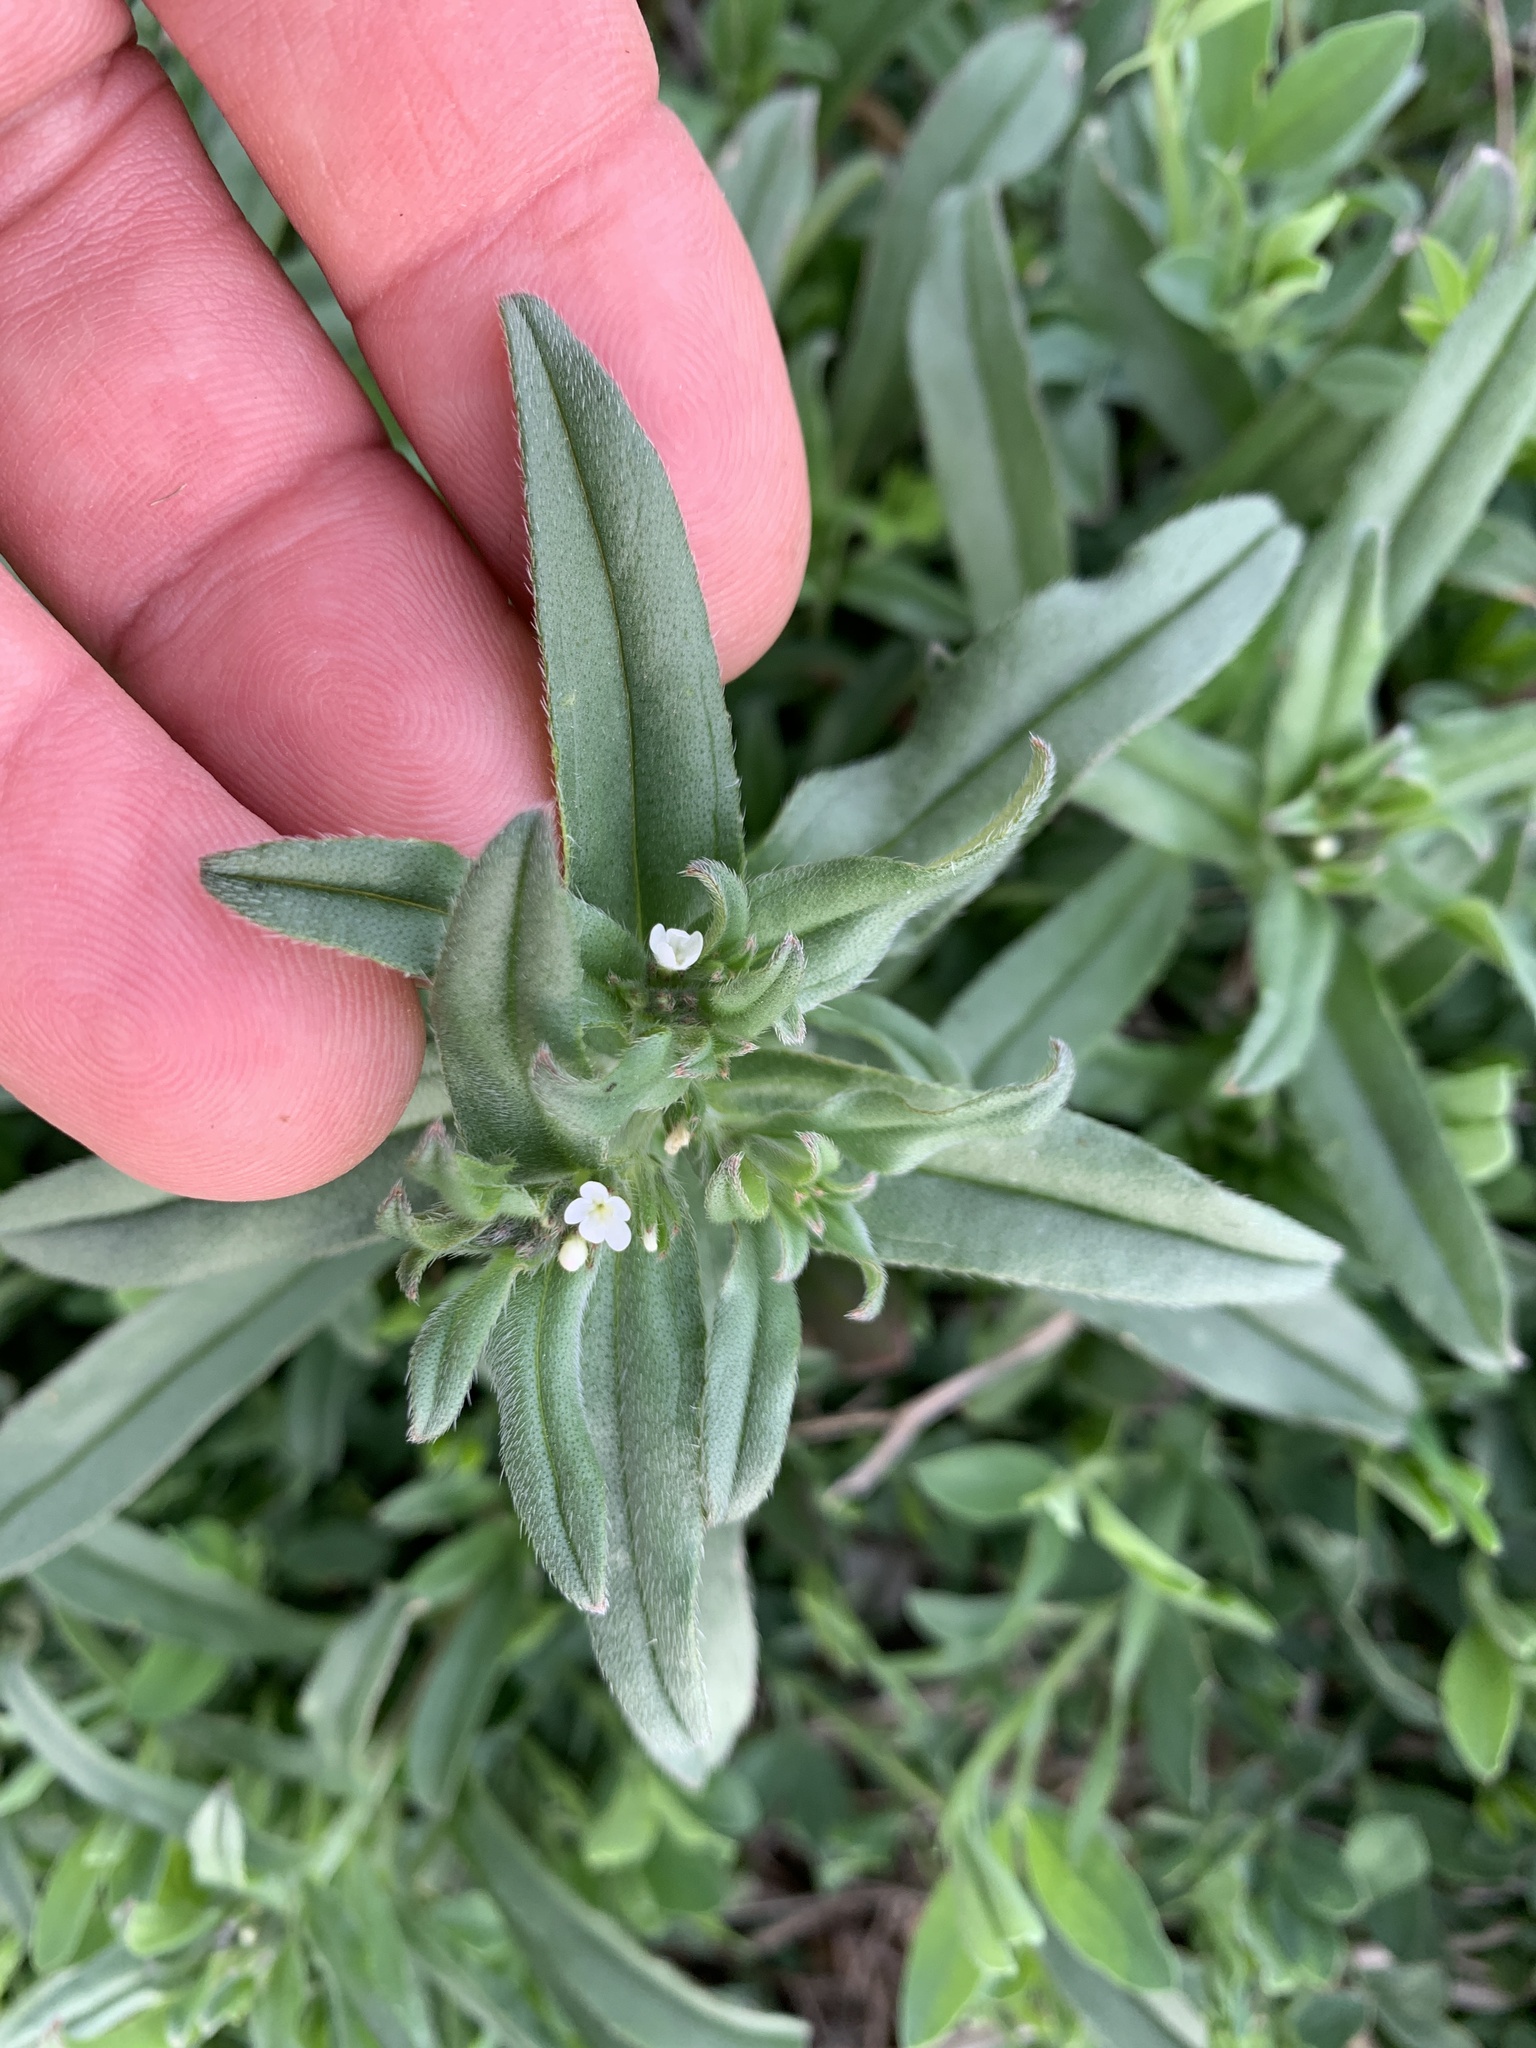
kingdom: Plantae
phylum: Tracheophyta
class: Magnoliopsida
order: Boraginales
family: Boraginaceae
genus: Buglossoides
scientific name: Buglossoides arvensis
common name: Corn gromwell
